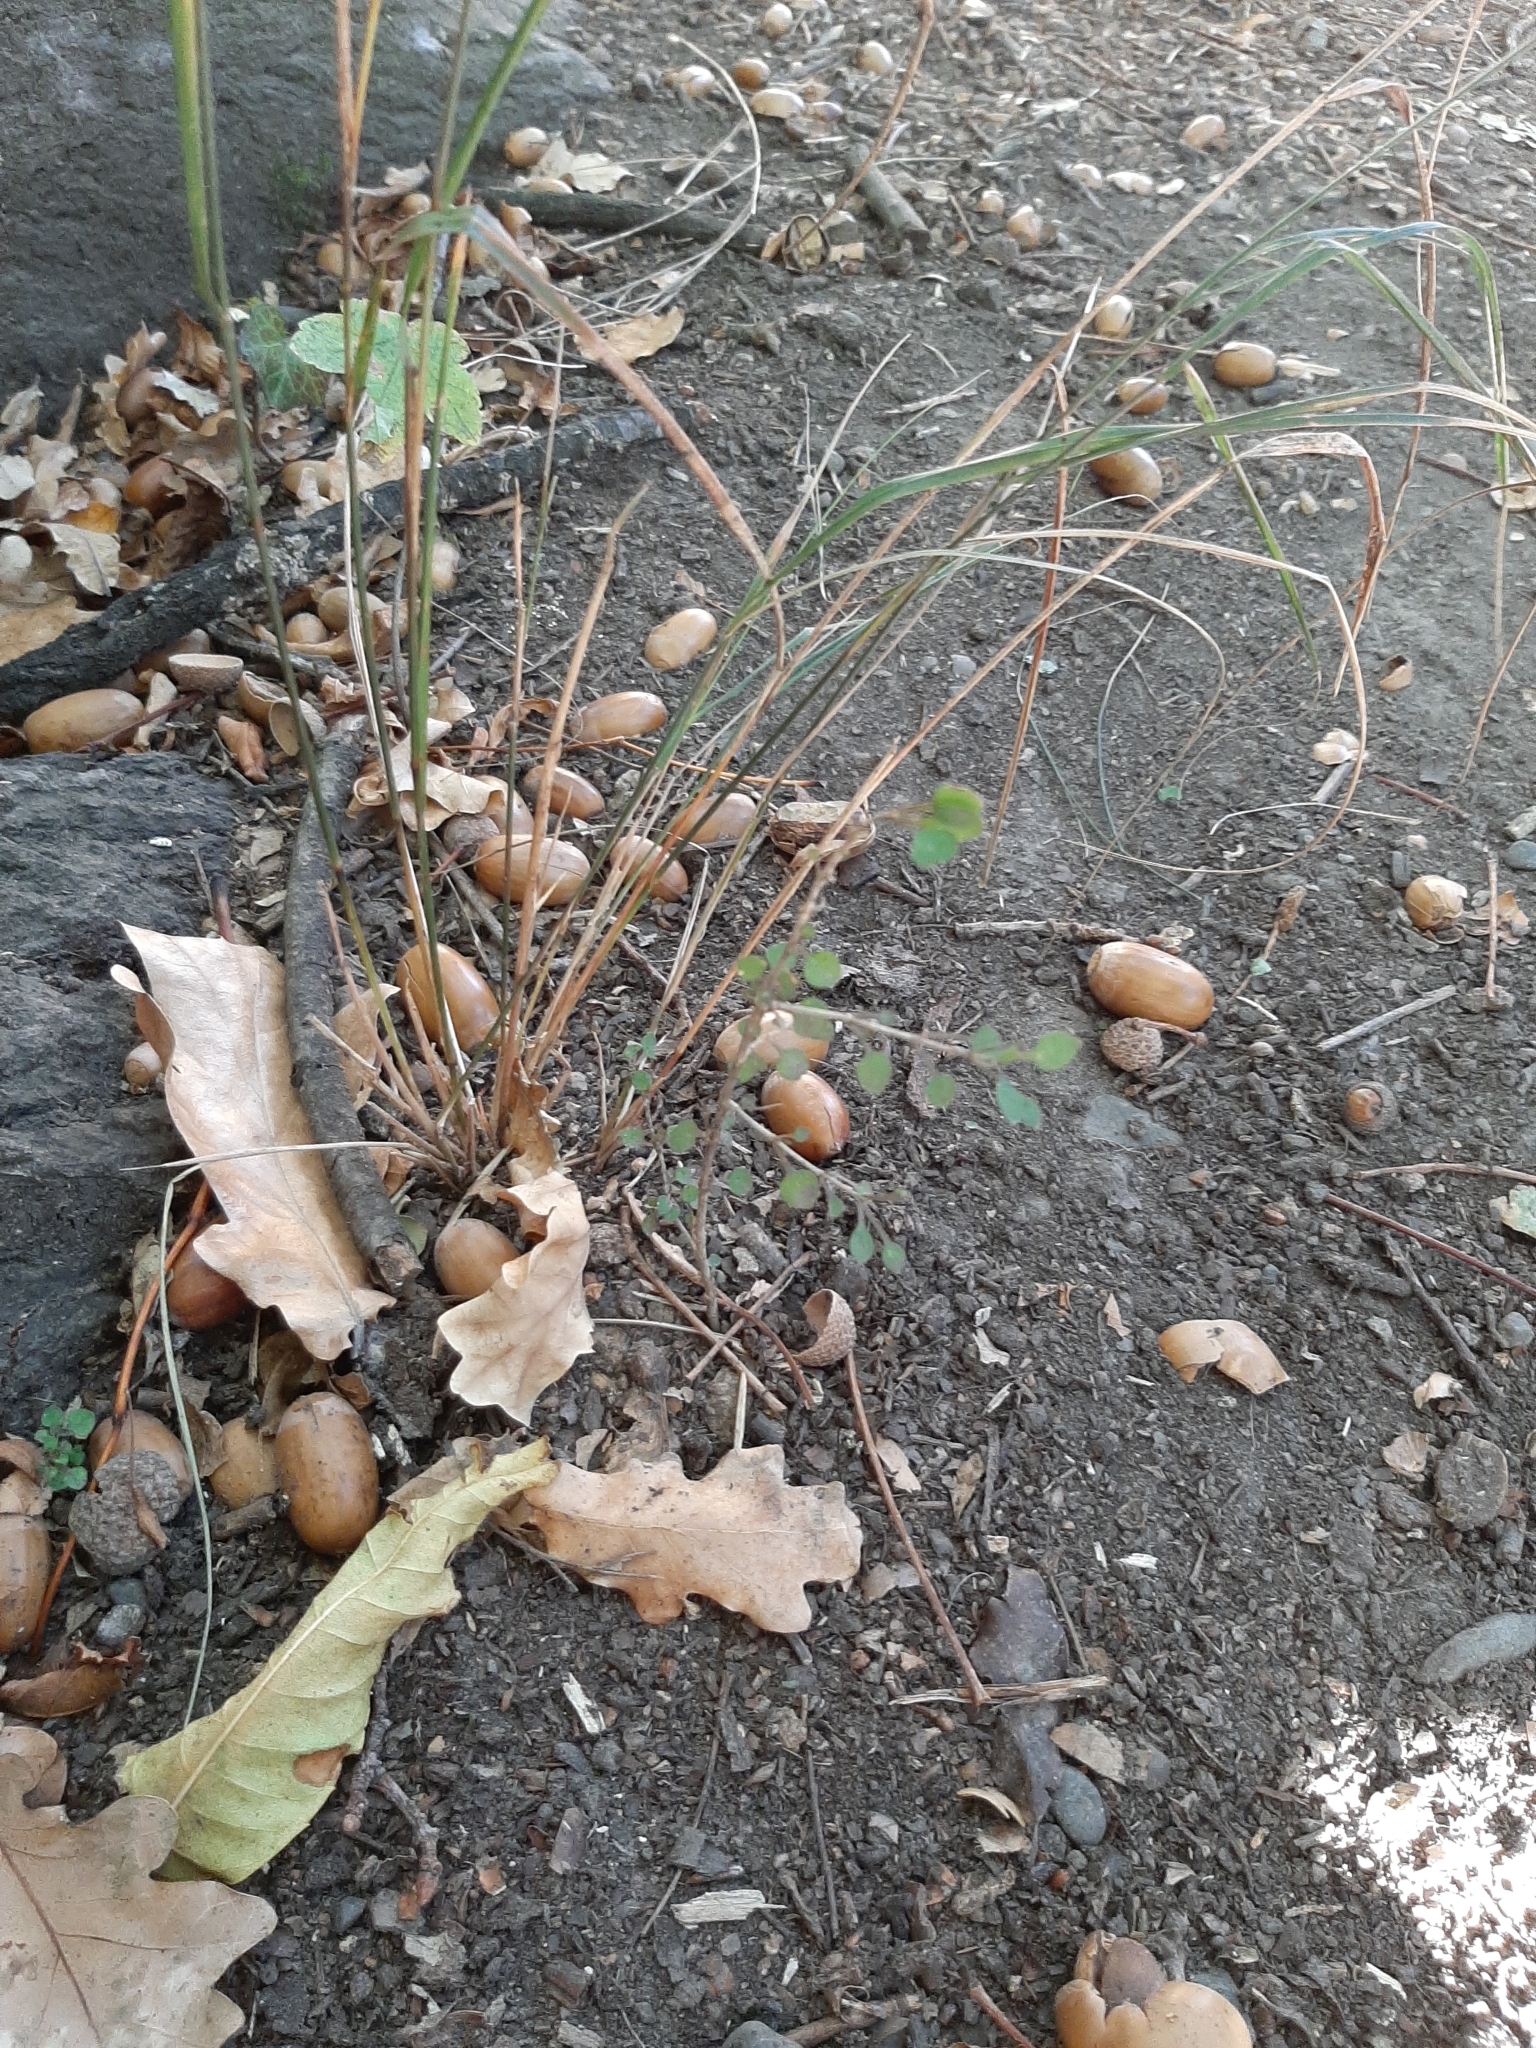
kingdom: Plantae
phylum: Tracheophyta
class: Magnoliopsida
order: Gentianales
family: Rubiaceae
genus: Coprosma
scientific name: Coprosma virescens
